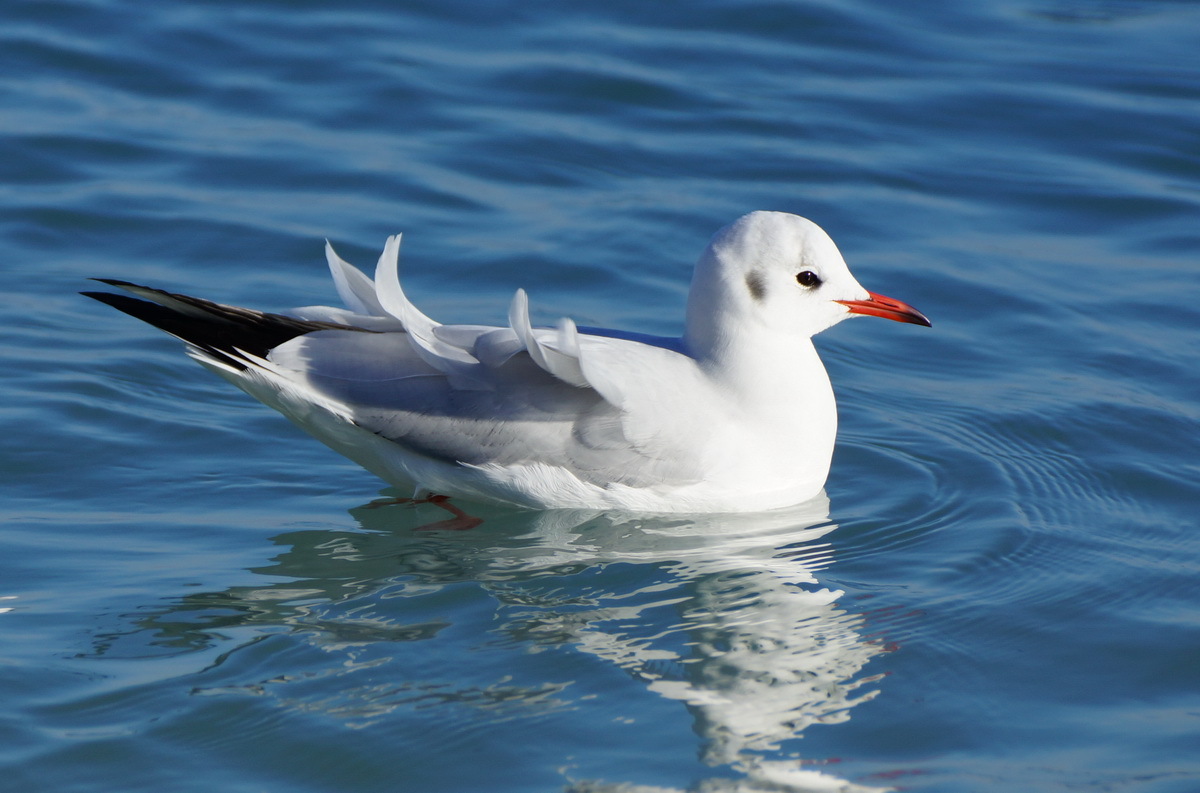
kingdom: Animalia
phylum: Chordata
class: Aves
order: Charadriiformes
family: Laridae
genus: Chroicocephalus
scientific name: Chroicocephalus ridibundus
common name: Black-headed gull
